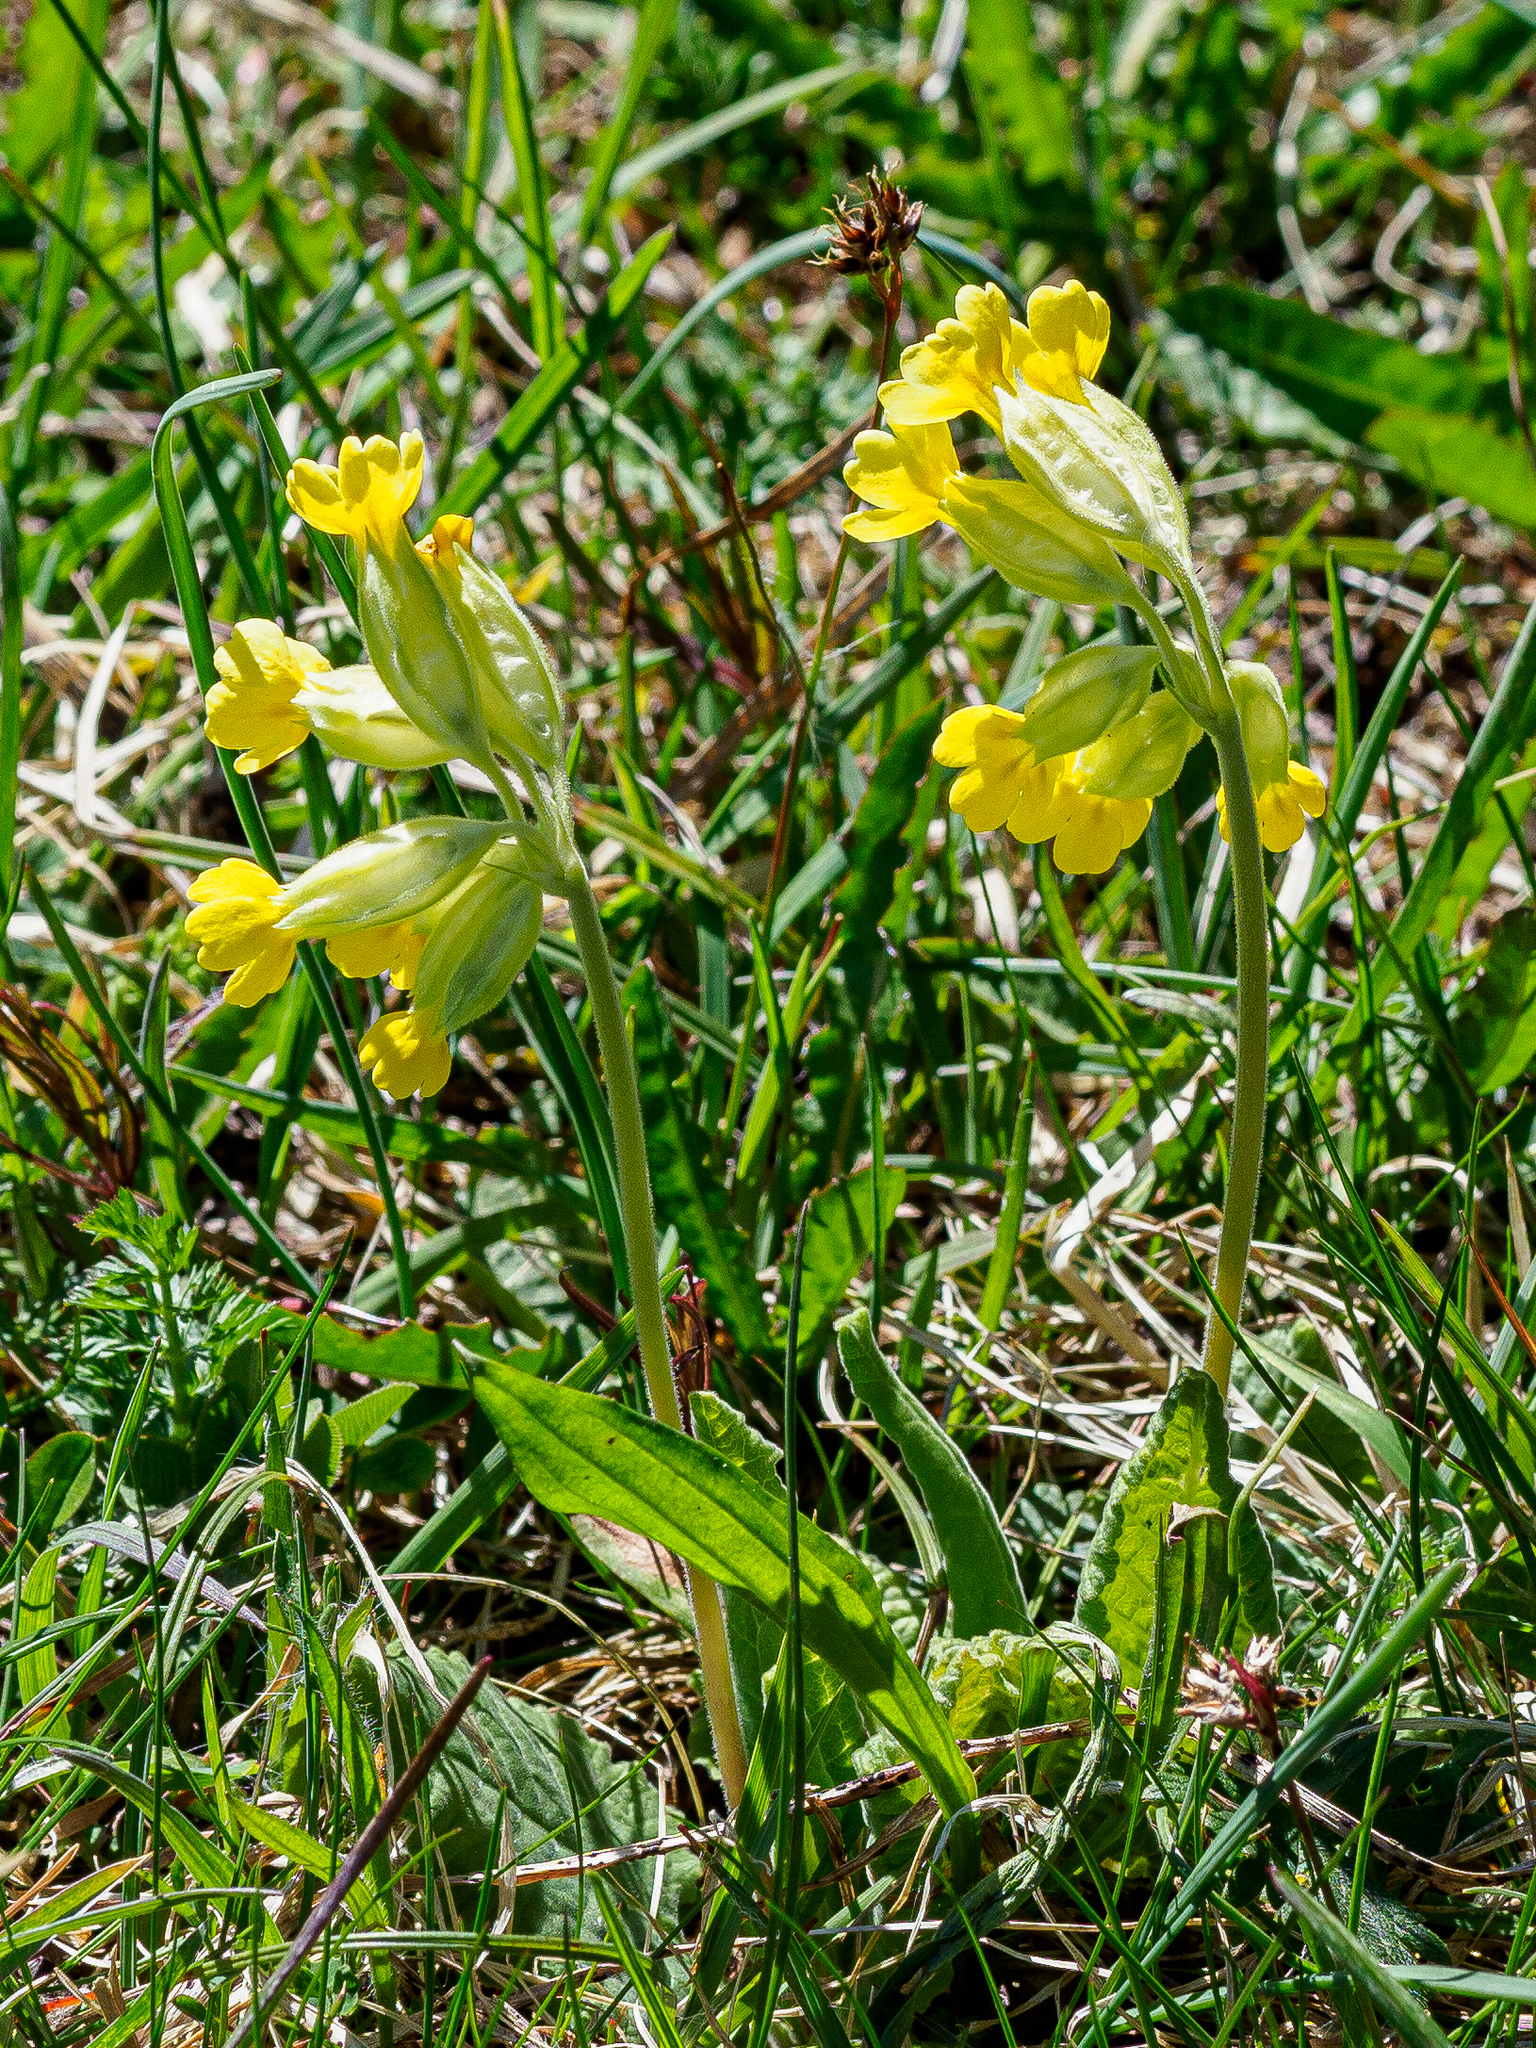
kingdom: Plantae
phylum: Tracheophyta
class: Magnoliopsida
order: Ericales
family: Primulaceae
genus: Primula
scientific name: Primula veris
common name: Cowslip
